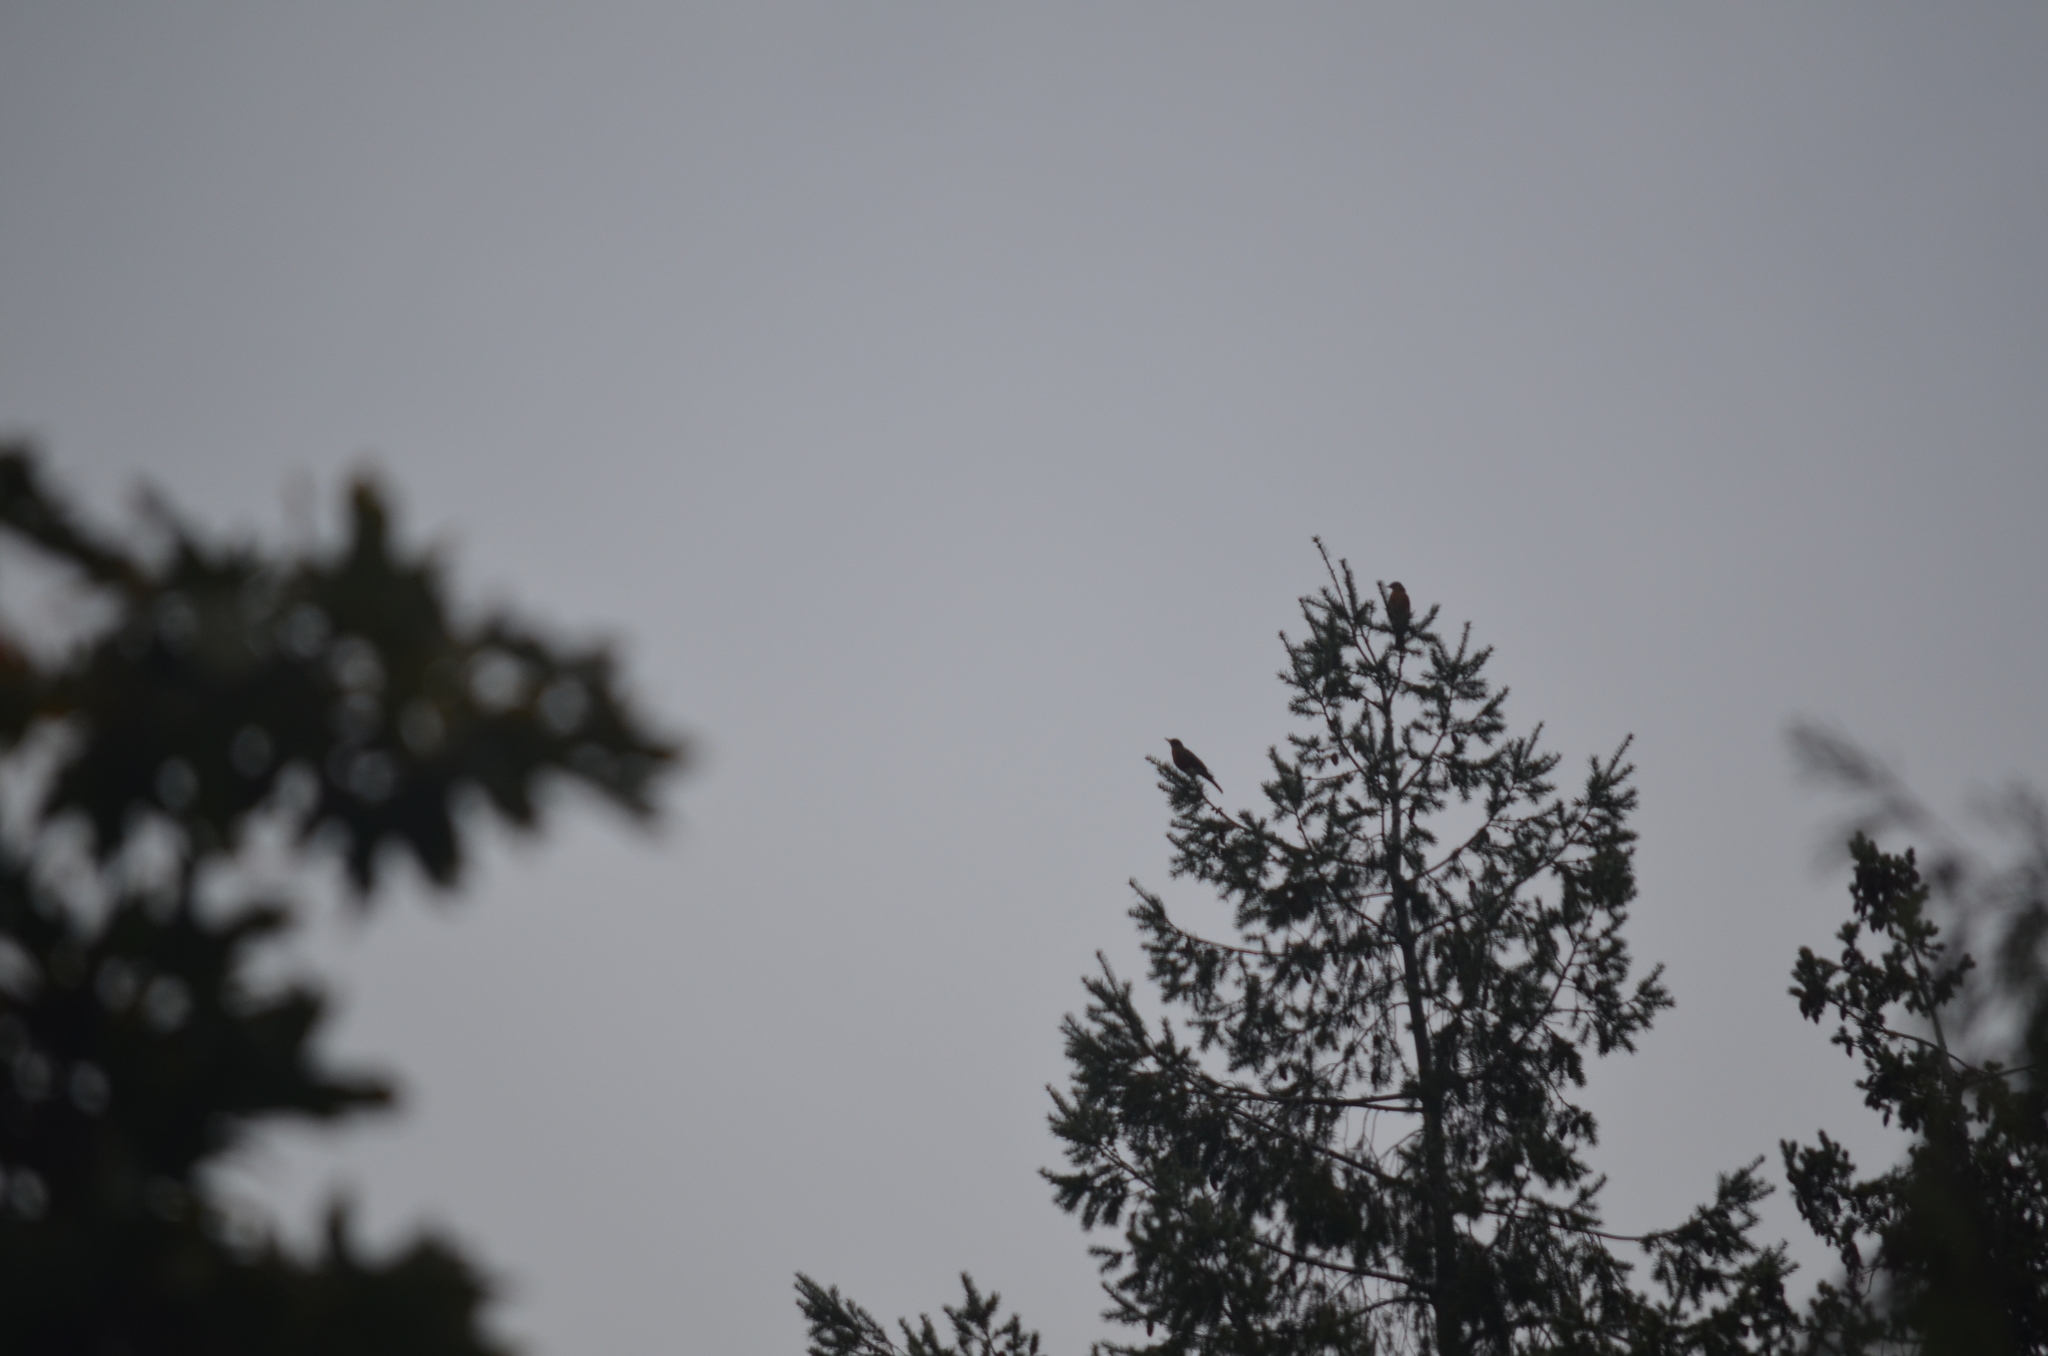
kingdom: Animalia
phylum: Chordata
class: Aves
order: Passeriformes
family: Turdidae
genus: Turdus
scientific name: Turdus migratorius
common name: American robin
